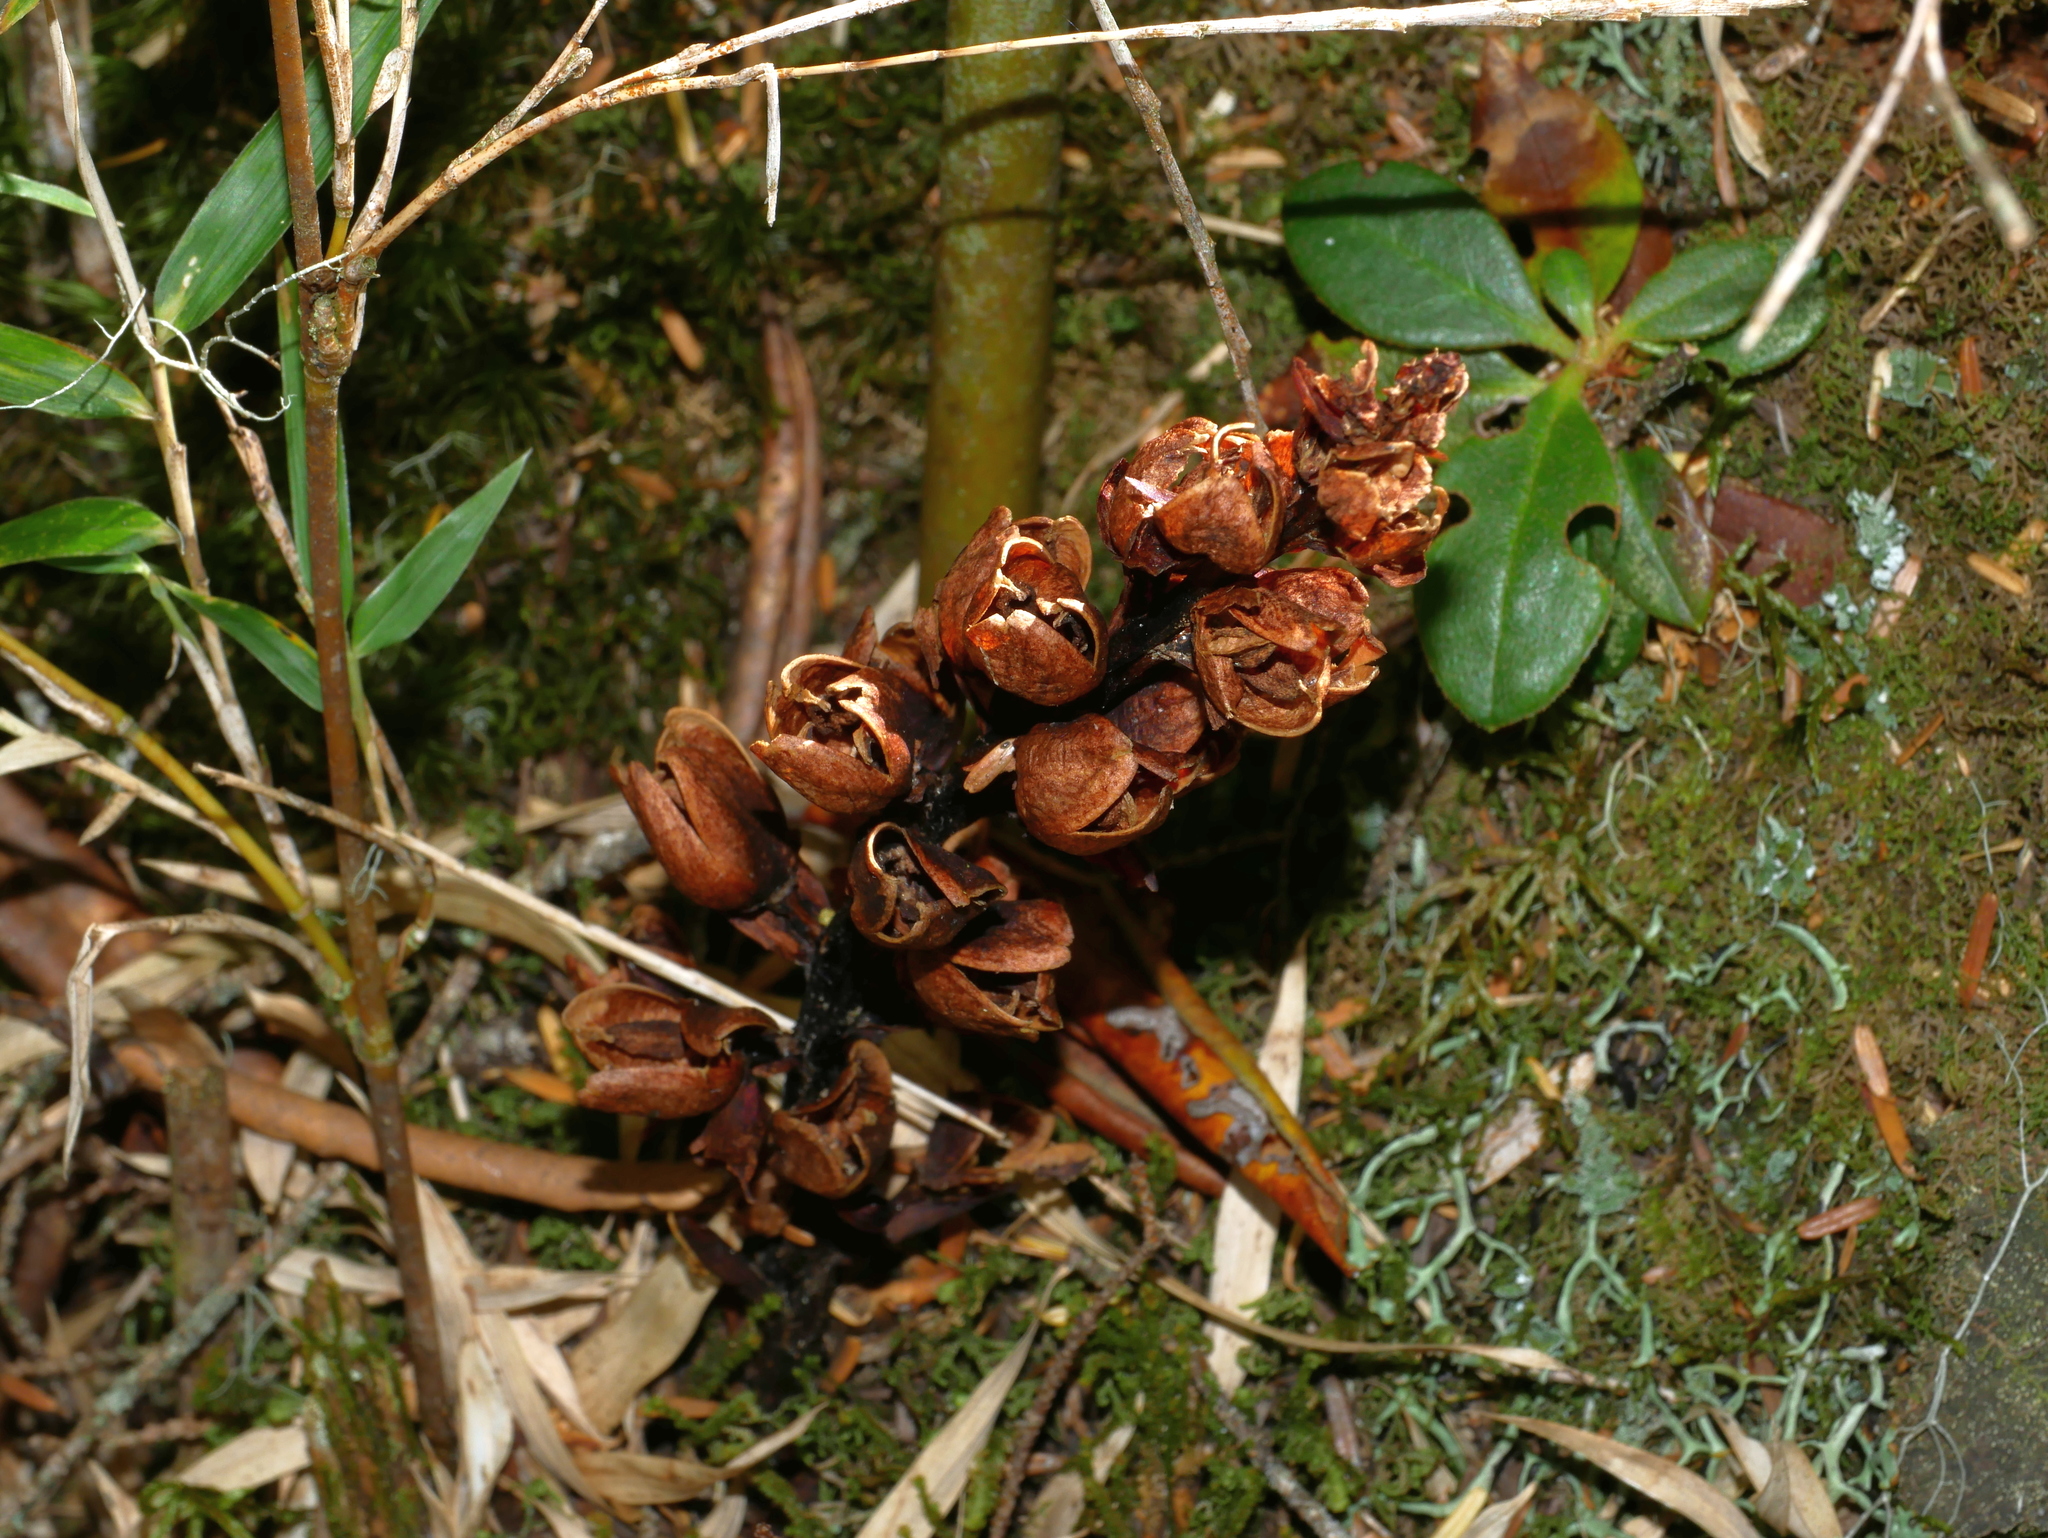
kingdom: Plantae
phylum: Tracheophyta
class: Magnoliopsida
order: Lamiales
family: Orobanchaceae
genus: Boschniakia
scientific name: Boschniakia himalaica
